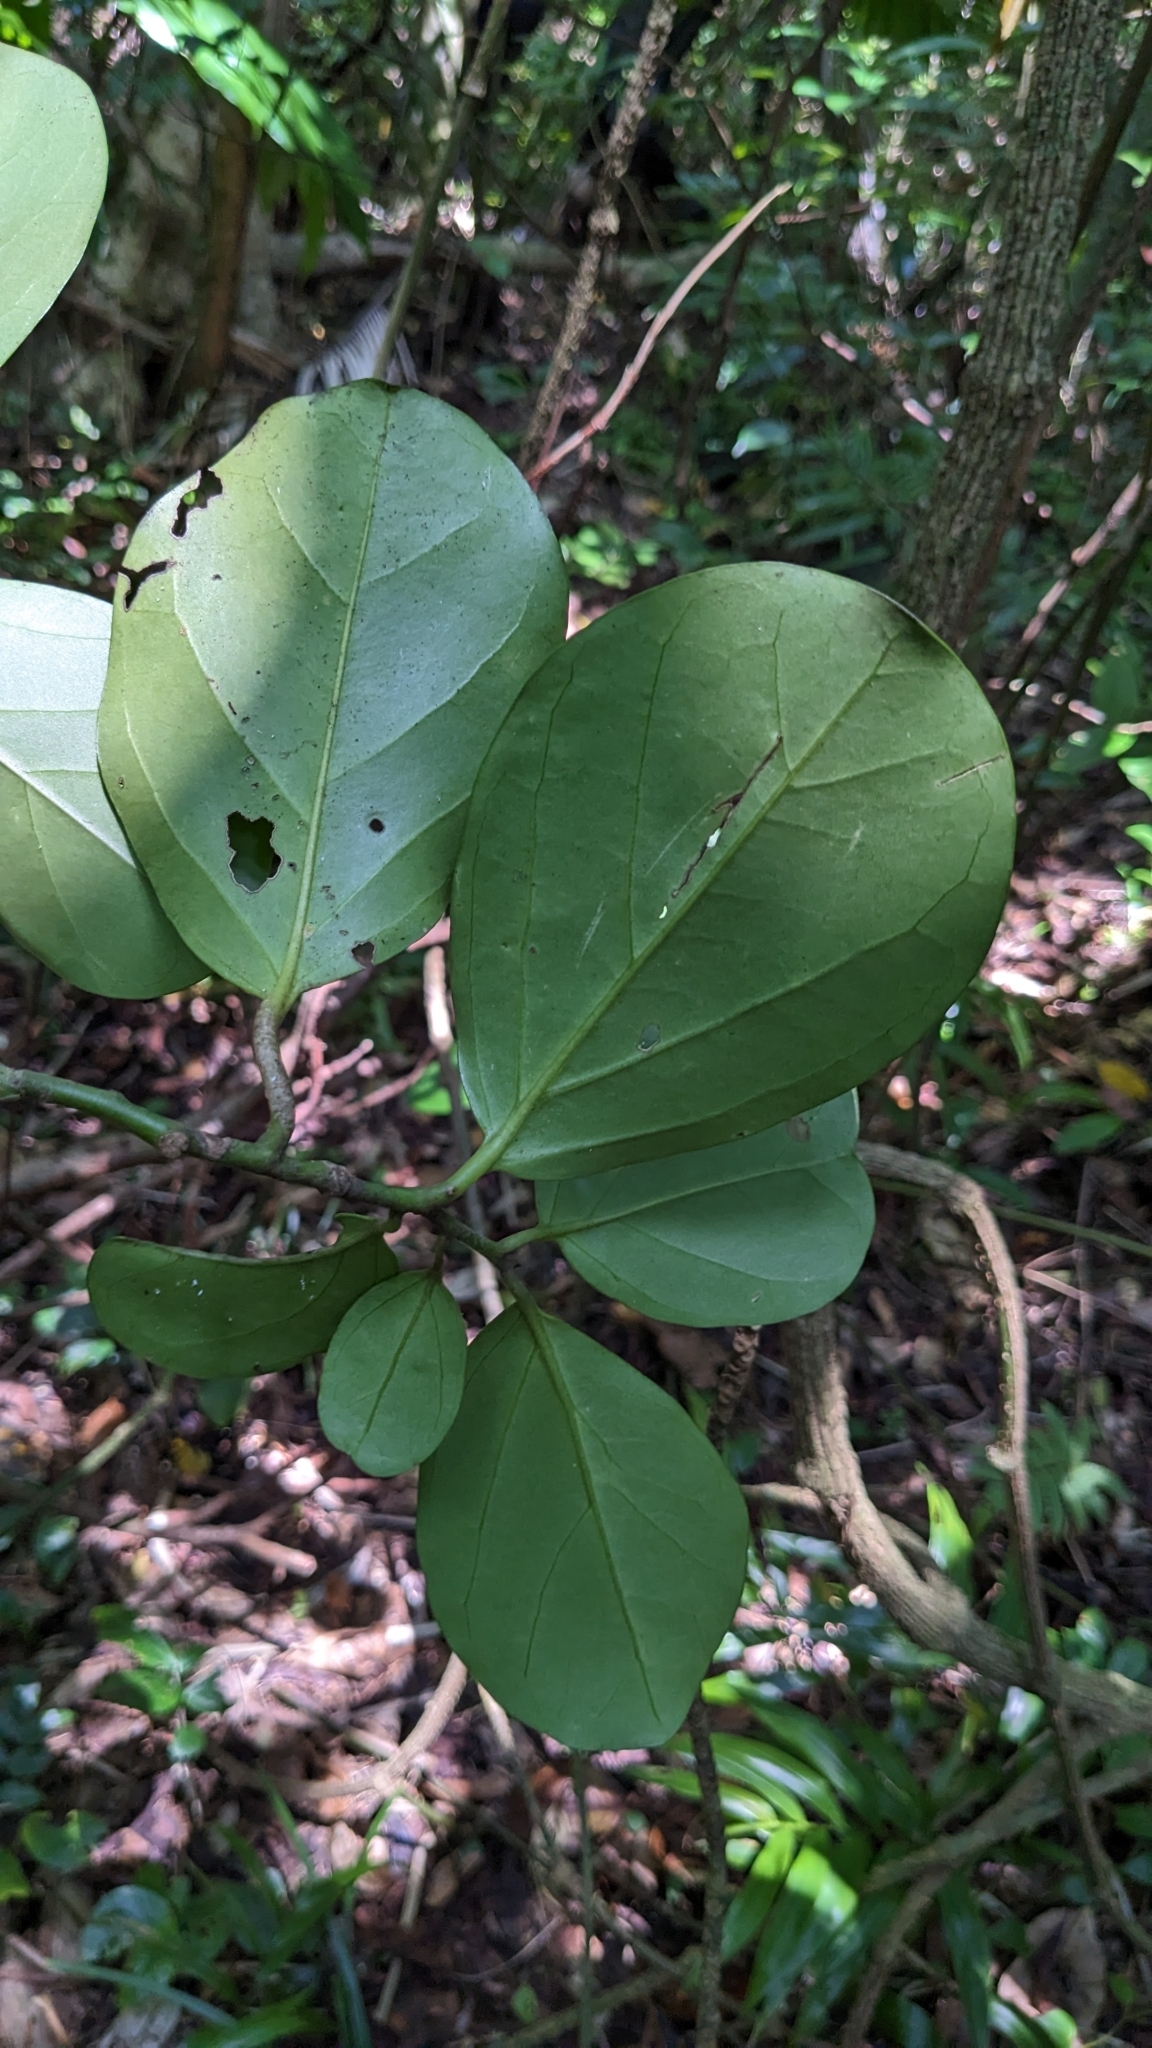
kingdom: Plantae
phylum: Tracheophyta
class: Magnoliopsida
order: Cardiopteridales
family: Stemonuraceae
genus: Gomphandra
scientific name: Gomphandra luzoniensis
